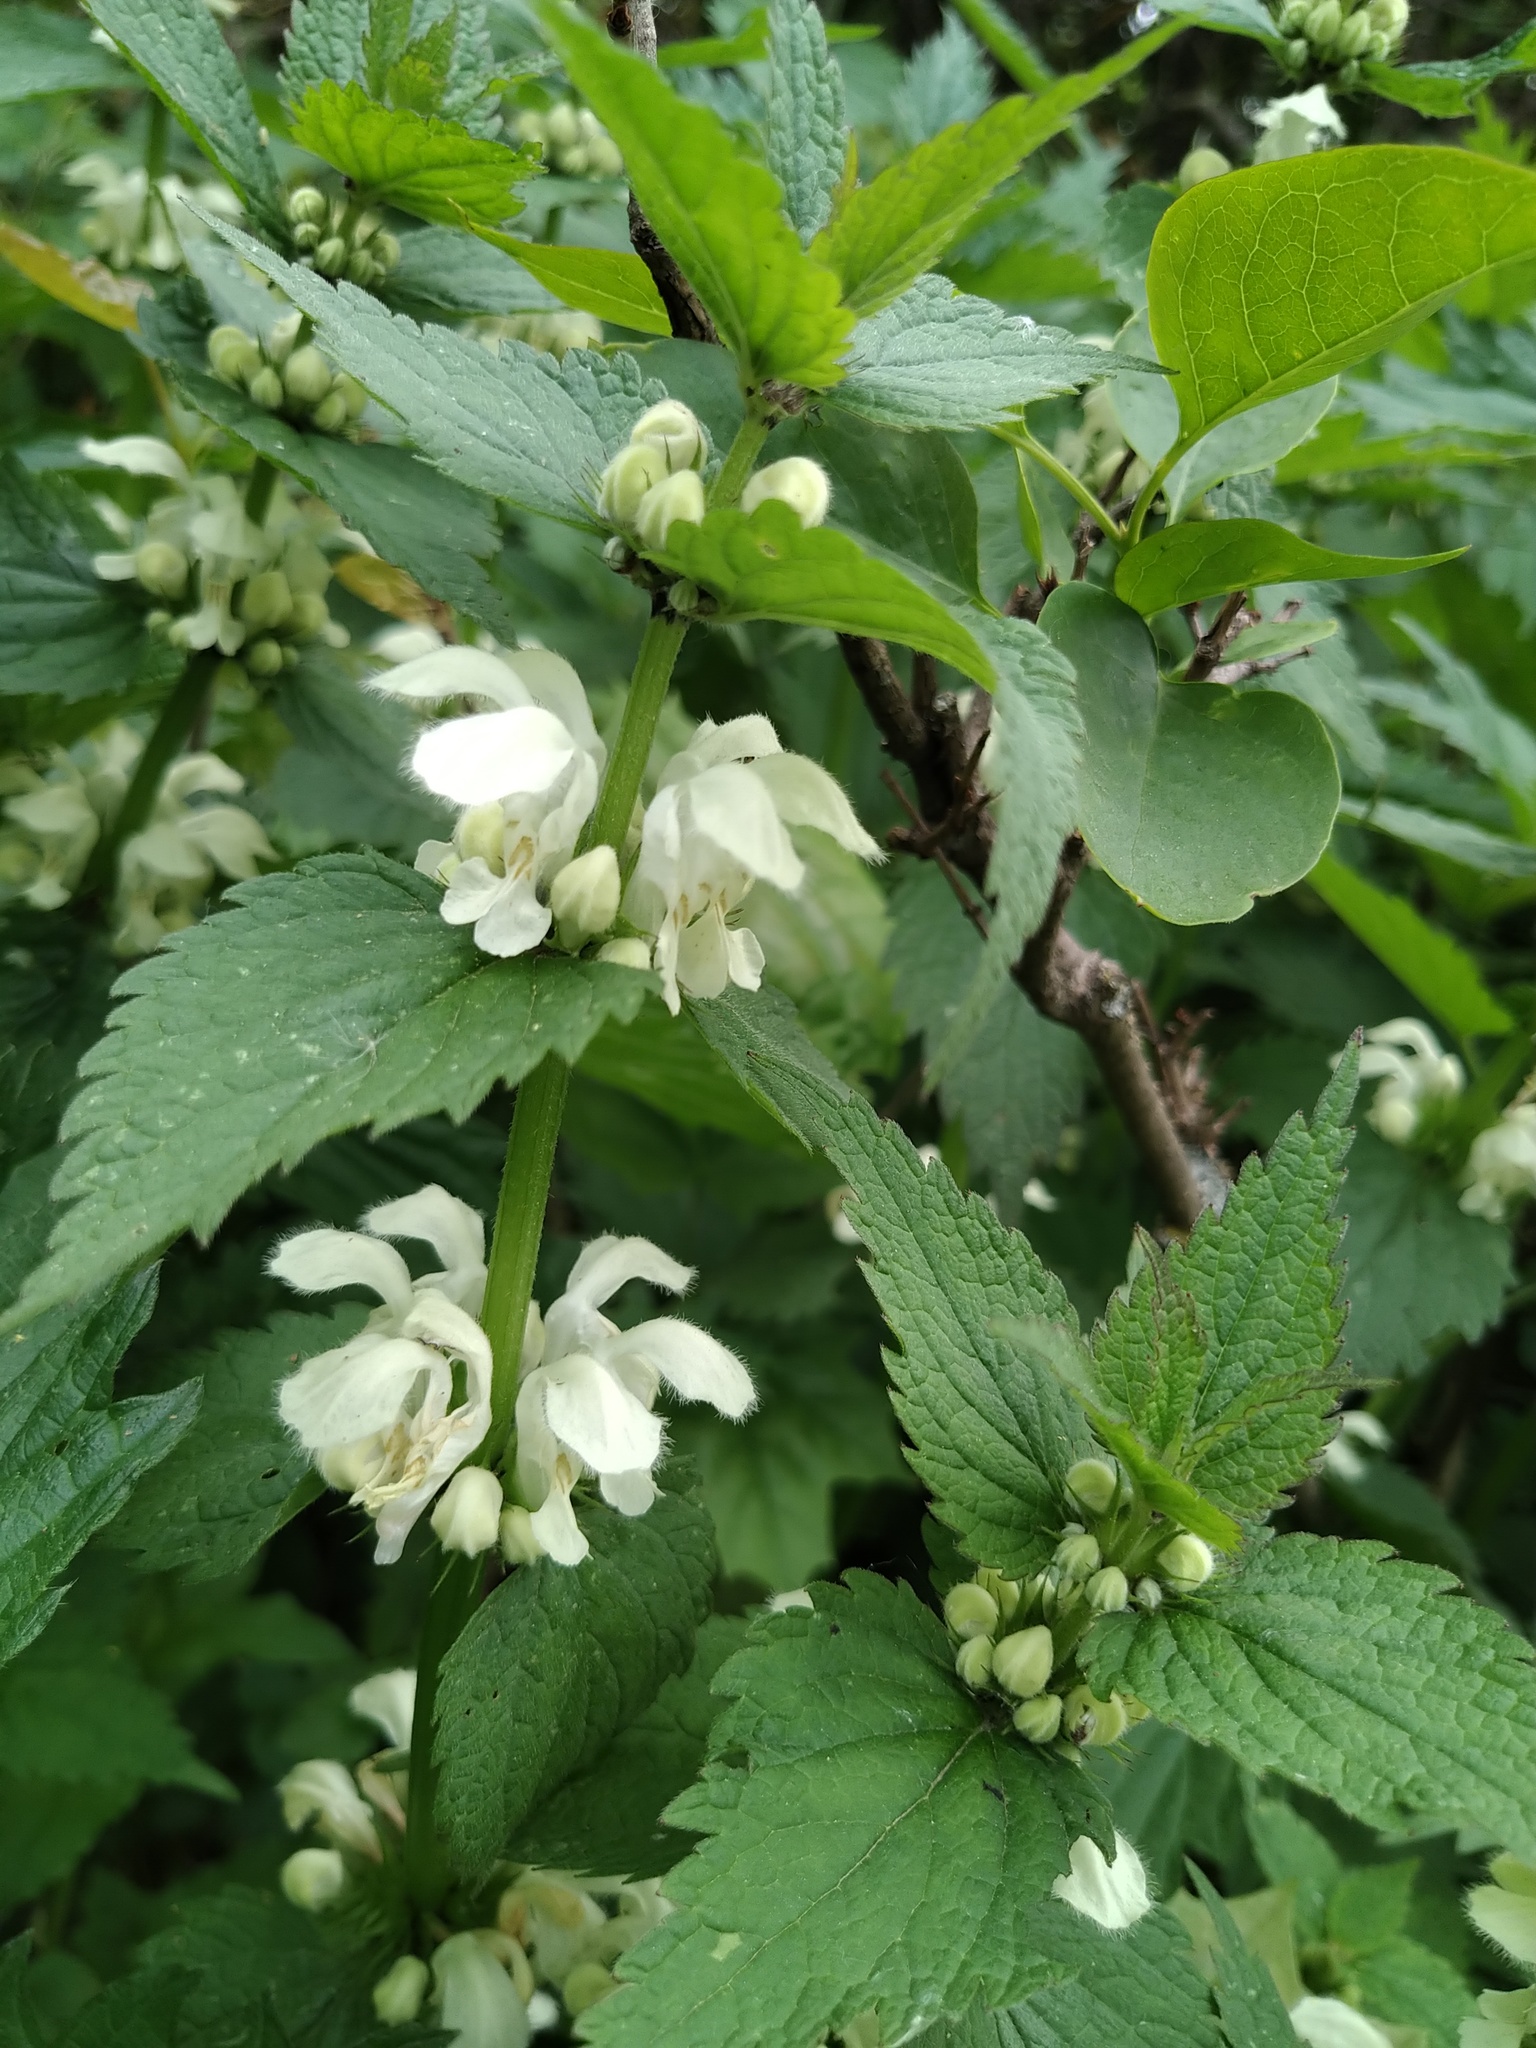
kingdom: Plantae
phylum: Tracheophyta
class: Magnoliopsida
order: Lamiales
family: Lamiaceae
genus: Lamium
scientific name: Lamium album
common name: White dead-nettle
